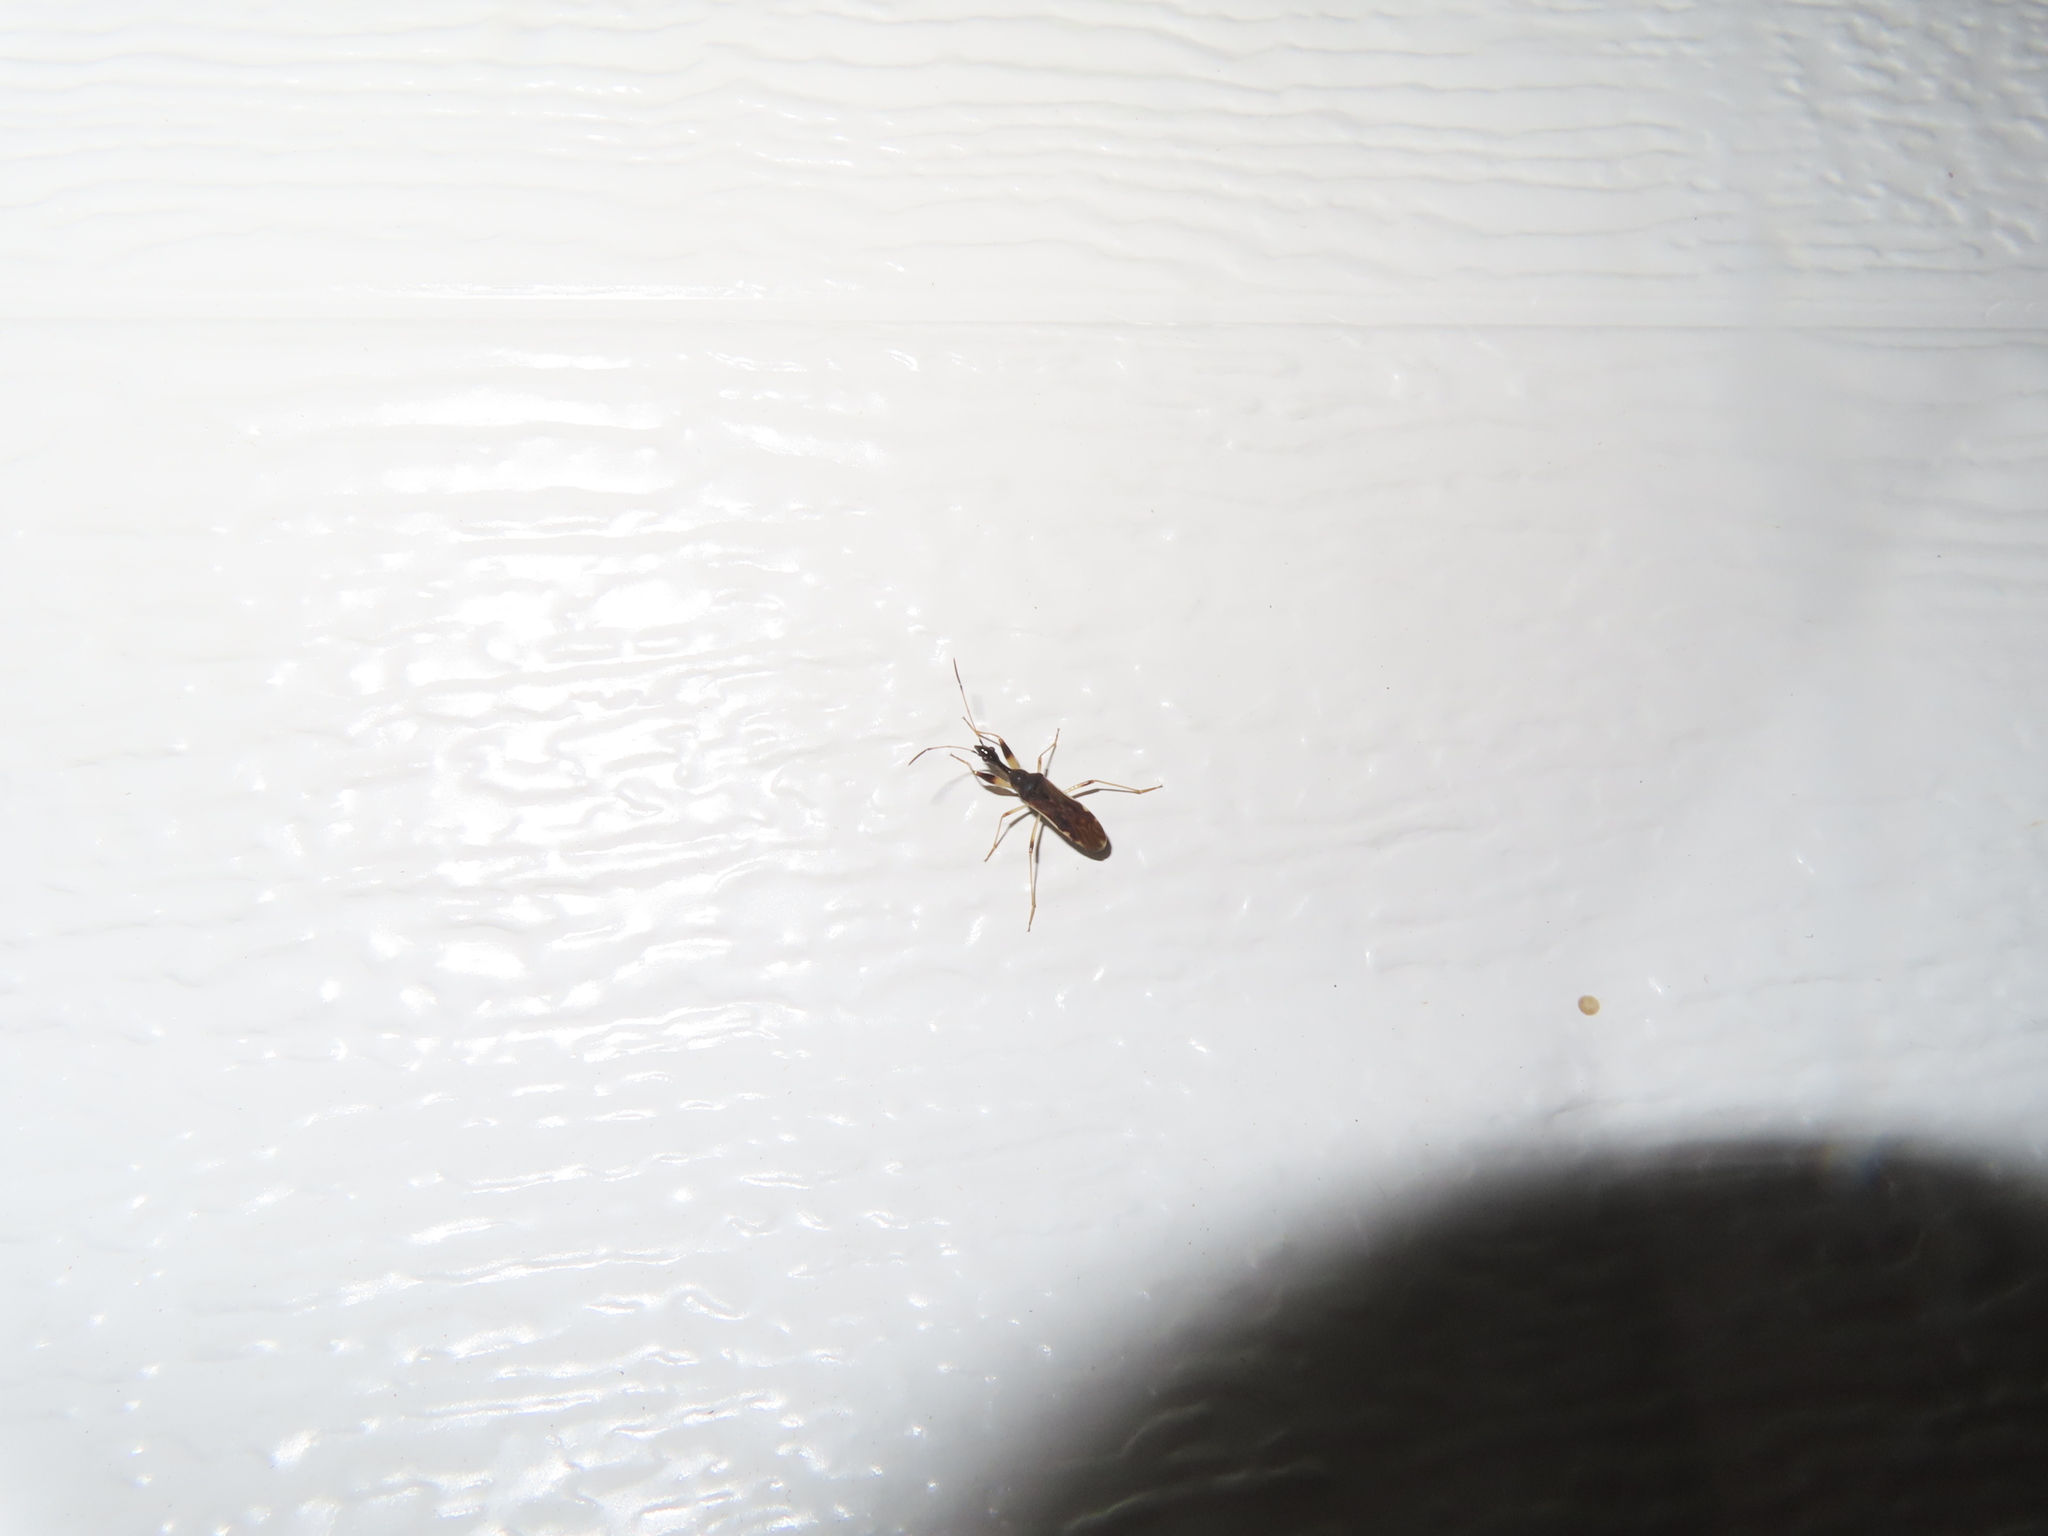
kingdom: Animalia
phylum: Arthropoda
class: Insecta
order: Hemiptera
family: Rhyparochromidae
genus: Myodocha
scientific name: Myodocha serripes
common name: Long-necked seed bug
